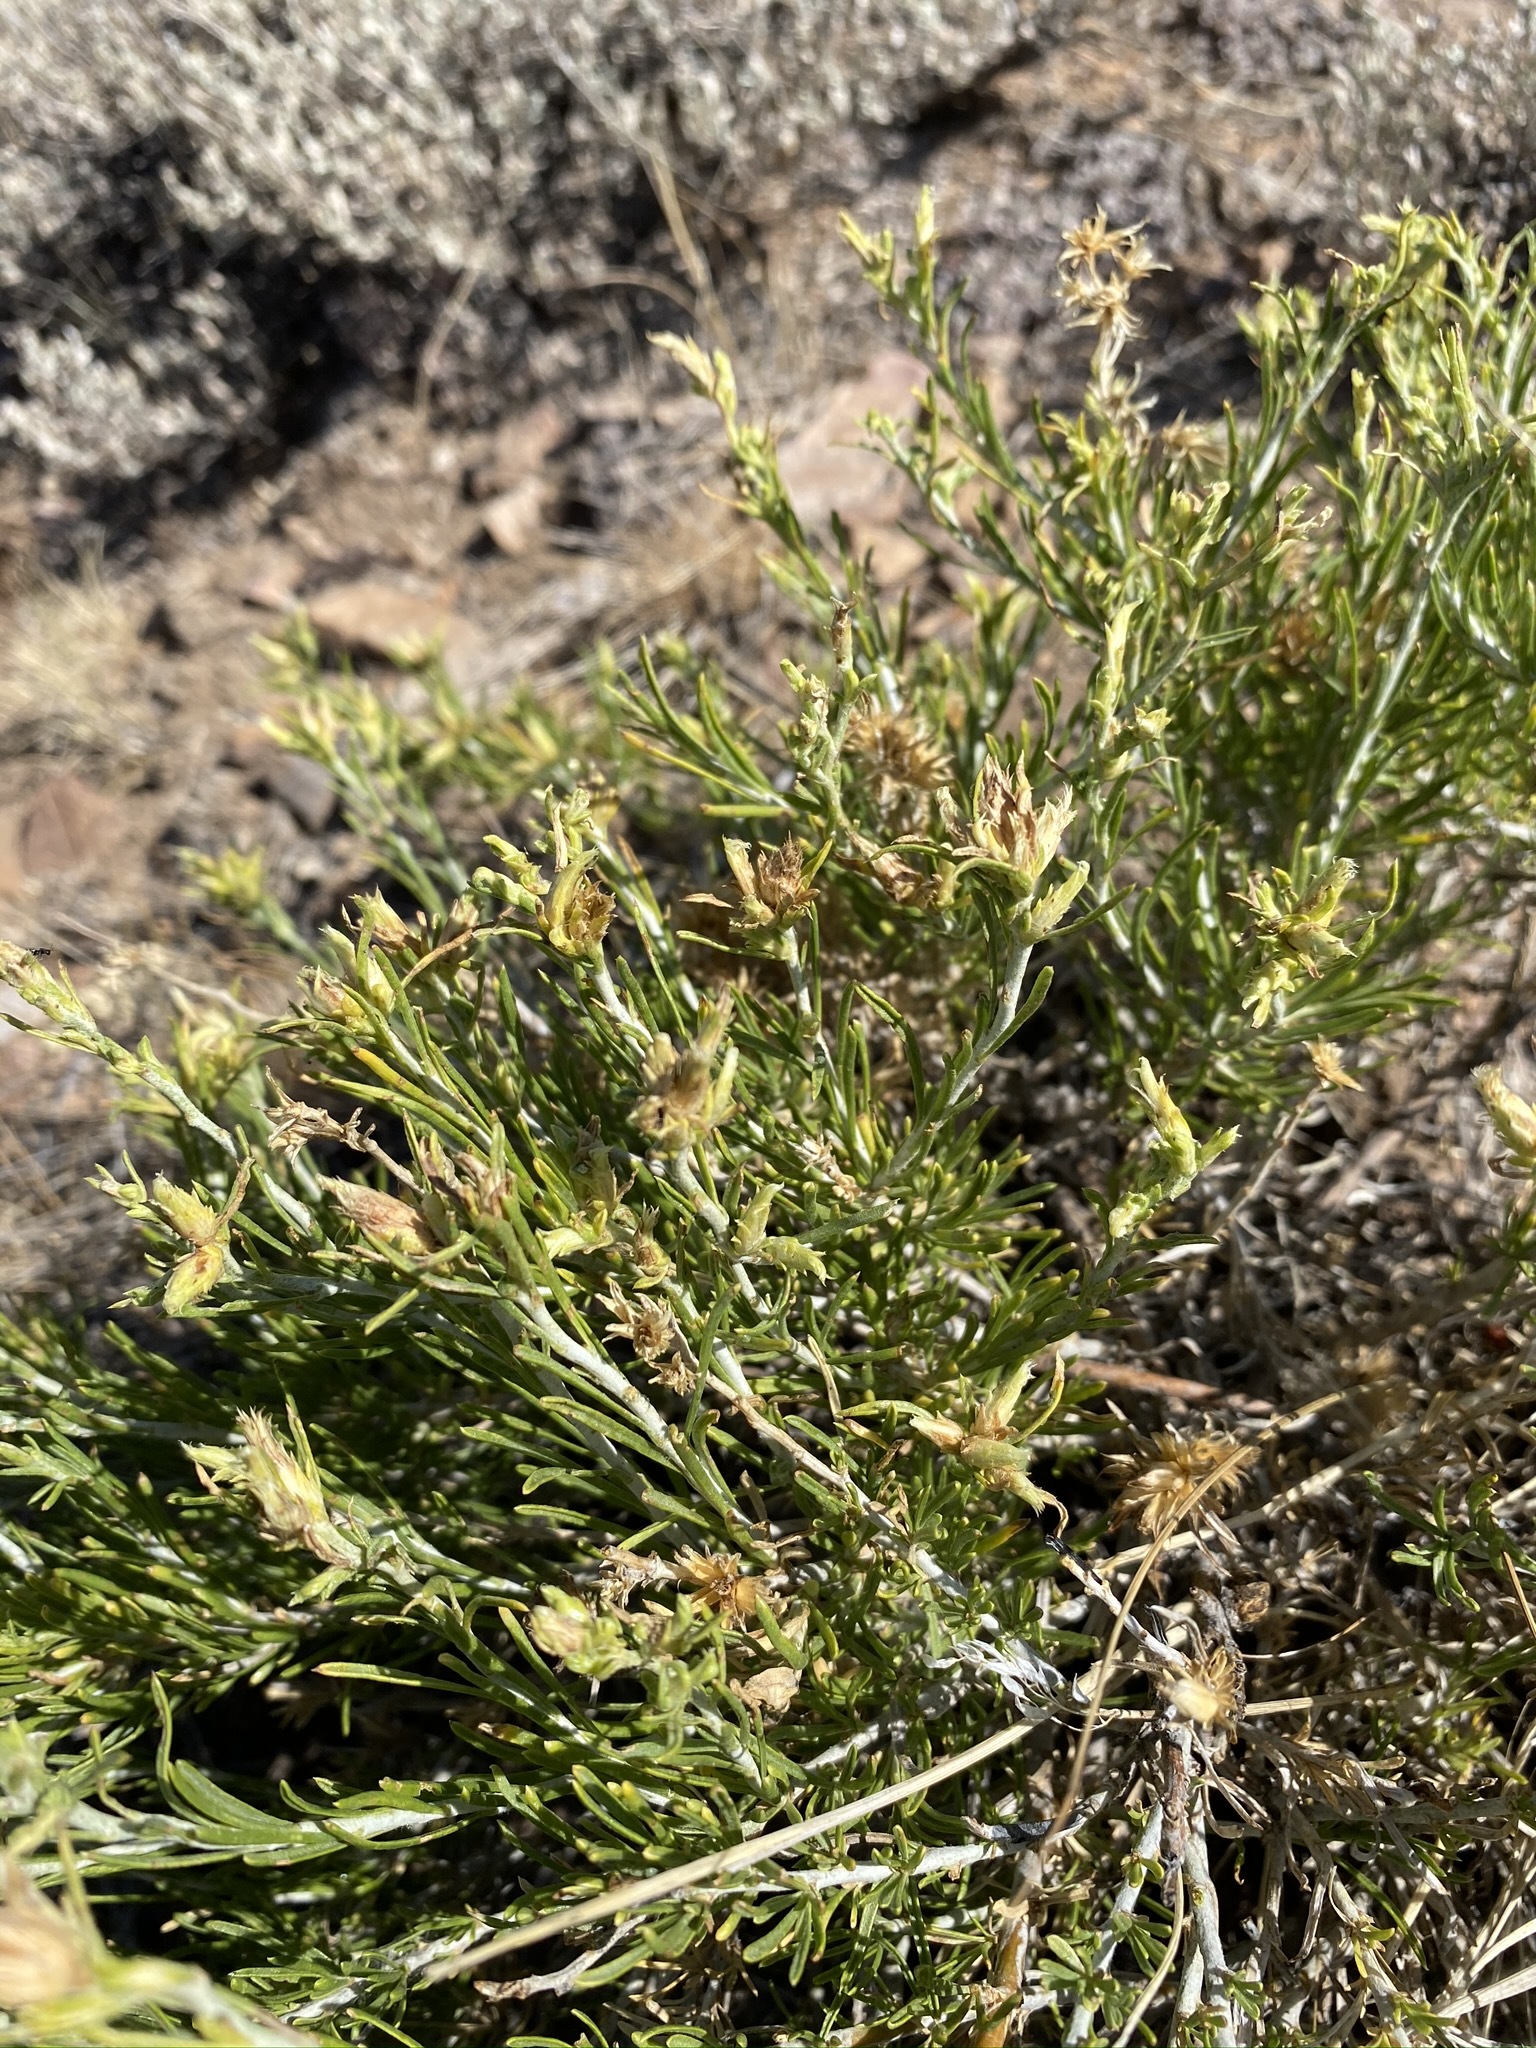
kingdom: Plantae
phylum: Tracheophyta
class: Magnoliopsida
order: Asterales
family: Asteraceae
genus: Ericameria
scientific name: Ericameria parryi
